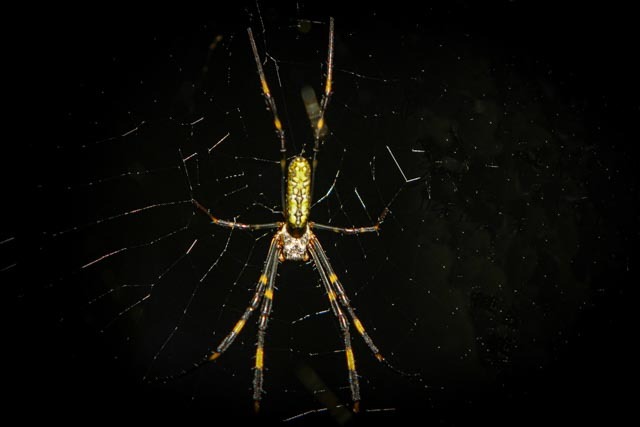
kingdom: Animalia
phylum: Arthropoda
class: Arachnida
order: Araneae
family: Araneidae
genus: Trichonephila
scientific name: Trichonephila clavata
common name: Jorō spider
